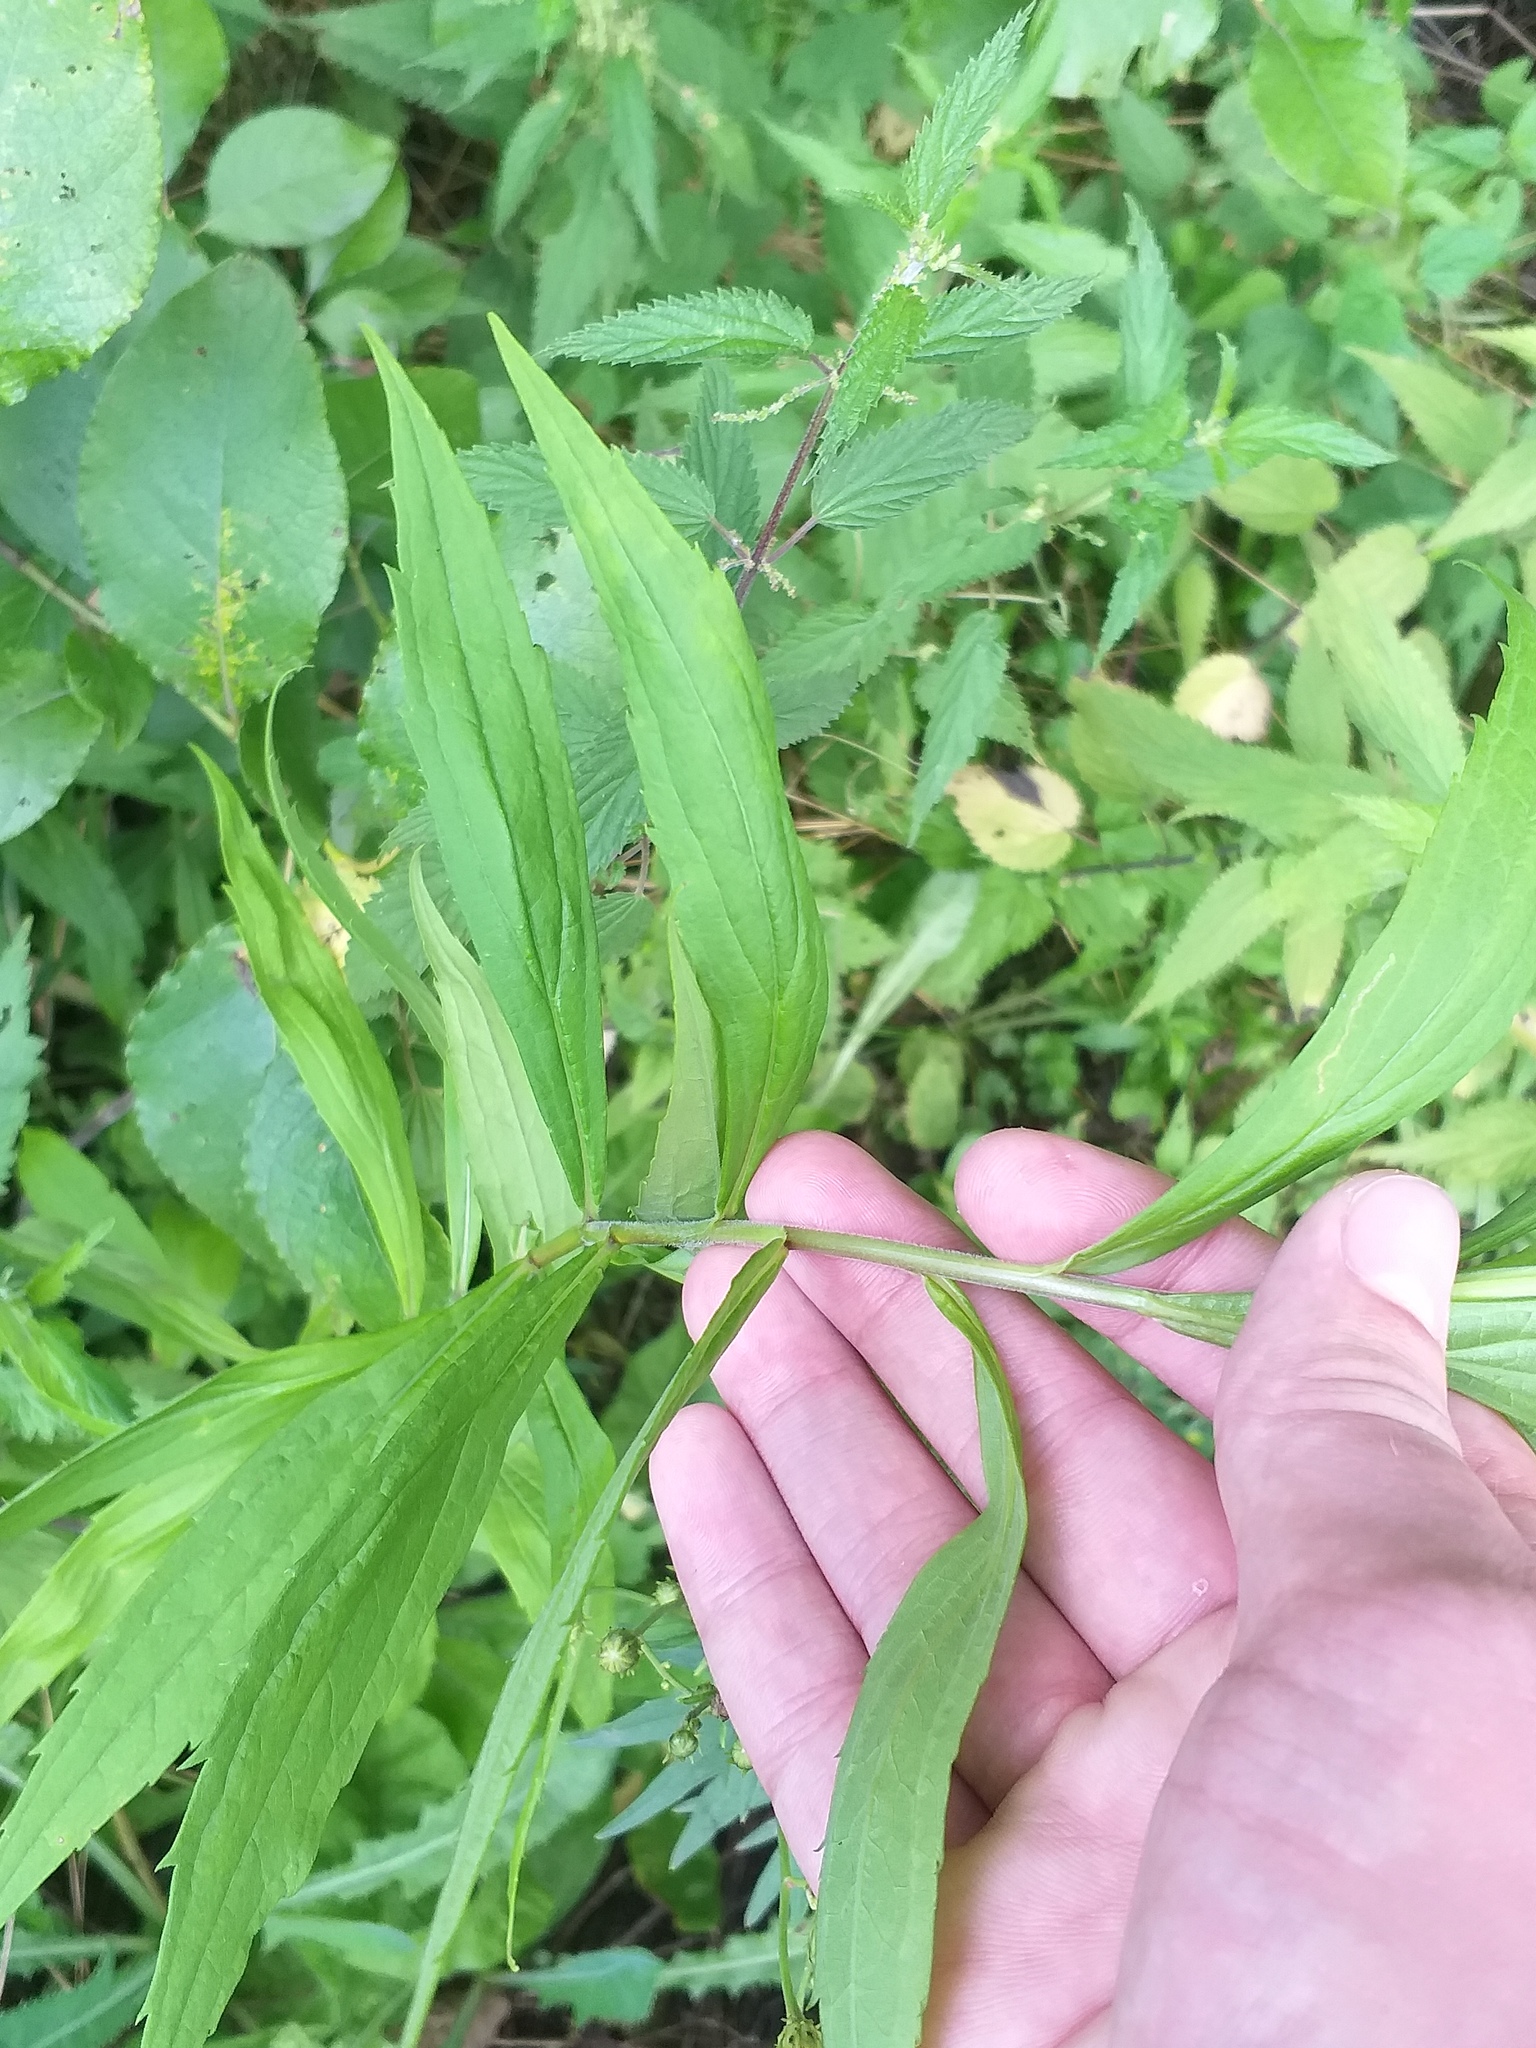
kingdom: Plantae
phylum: Tracheophyta
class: Magnoliopsida
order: Asterales
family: Asteraceae
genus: Solidago
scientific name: Solidago canadensis
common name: Canada goldenrod
